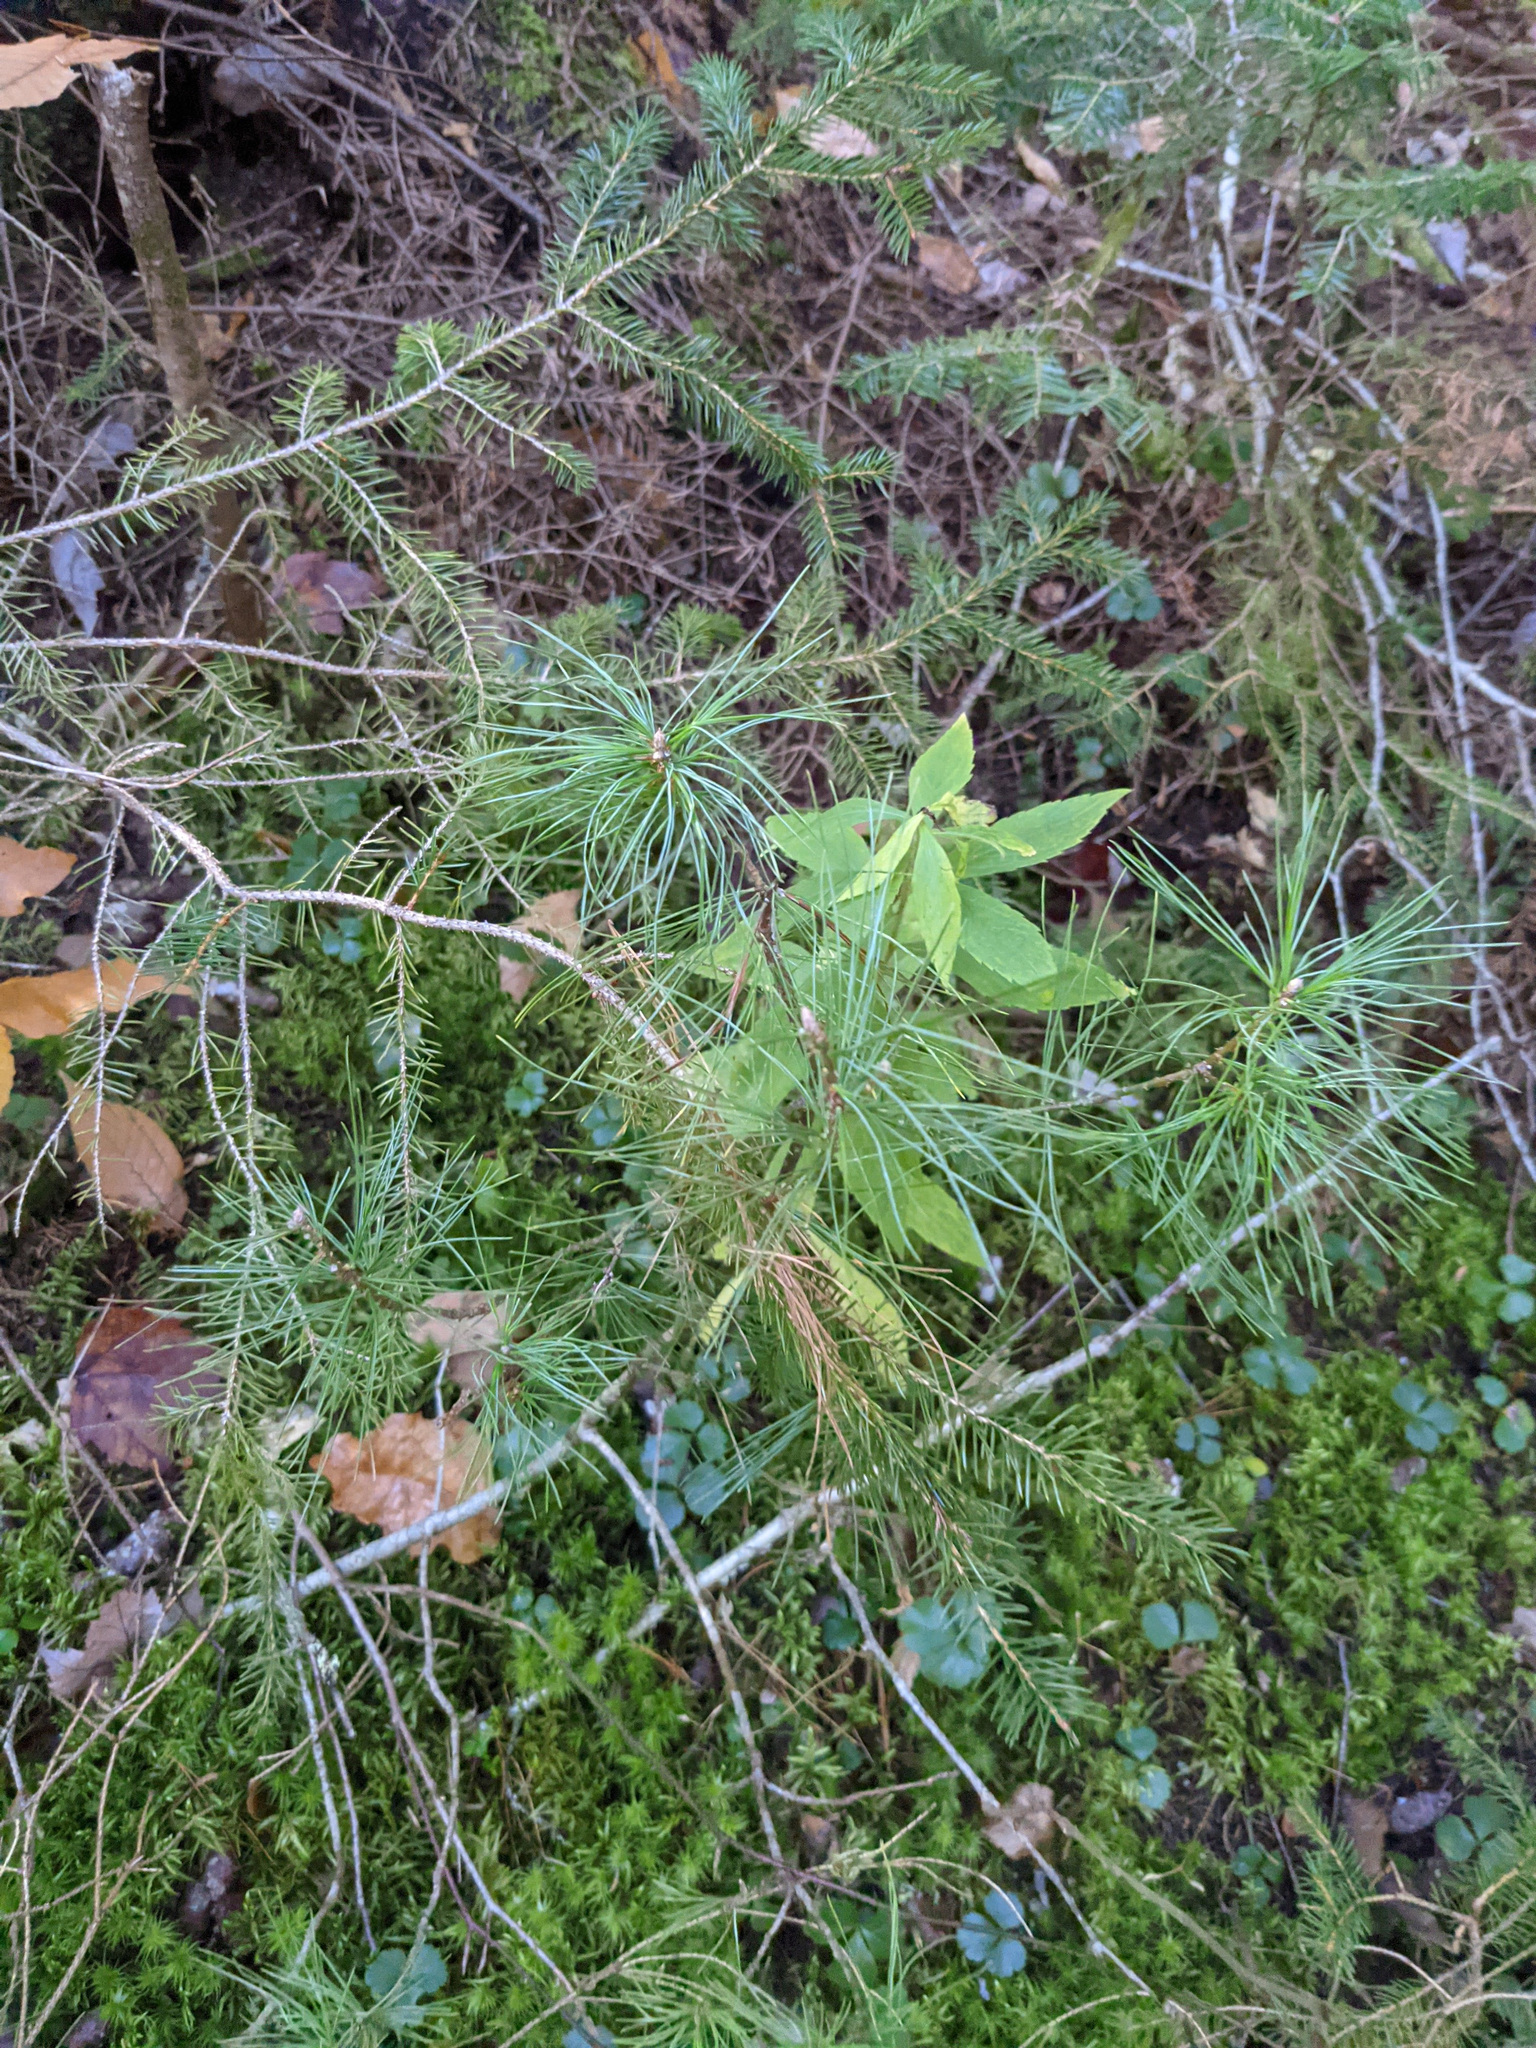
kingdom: Plantae
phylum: Tracheophyta
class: Pinopsida
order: Pinales
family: Pinaceae
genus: Pinus
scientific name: Pinus strobus
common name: Weymouth pine
